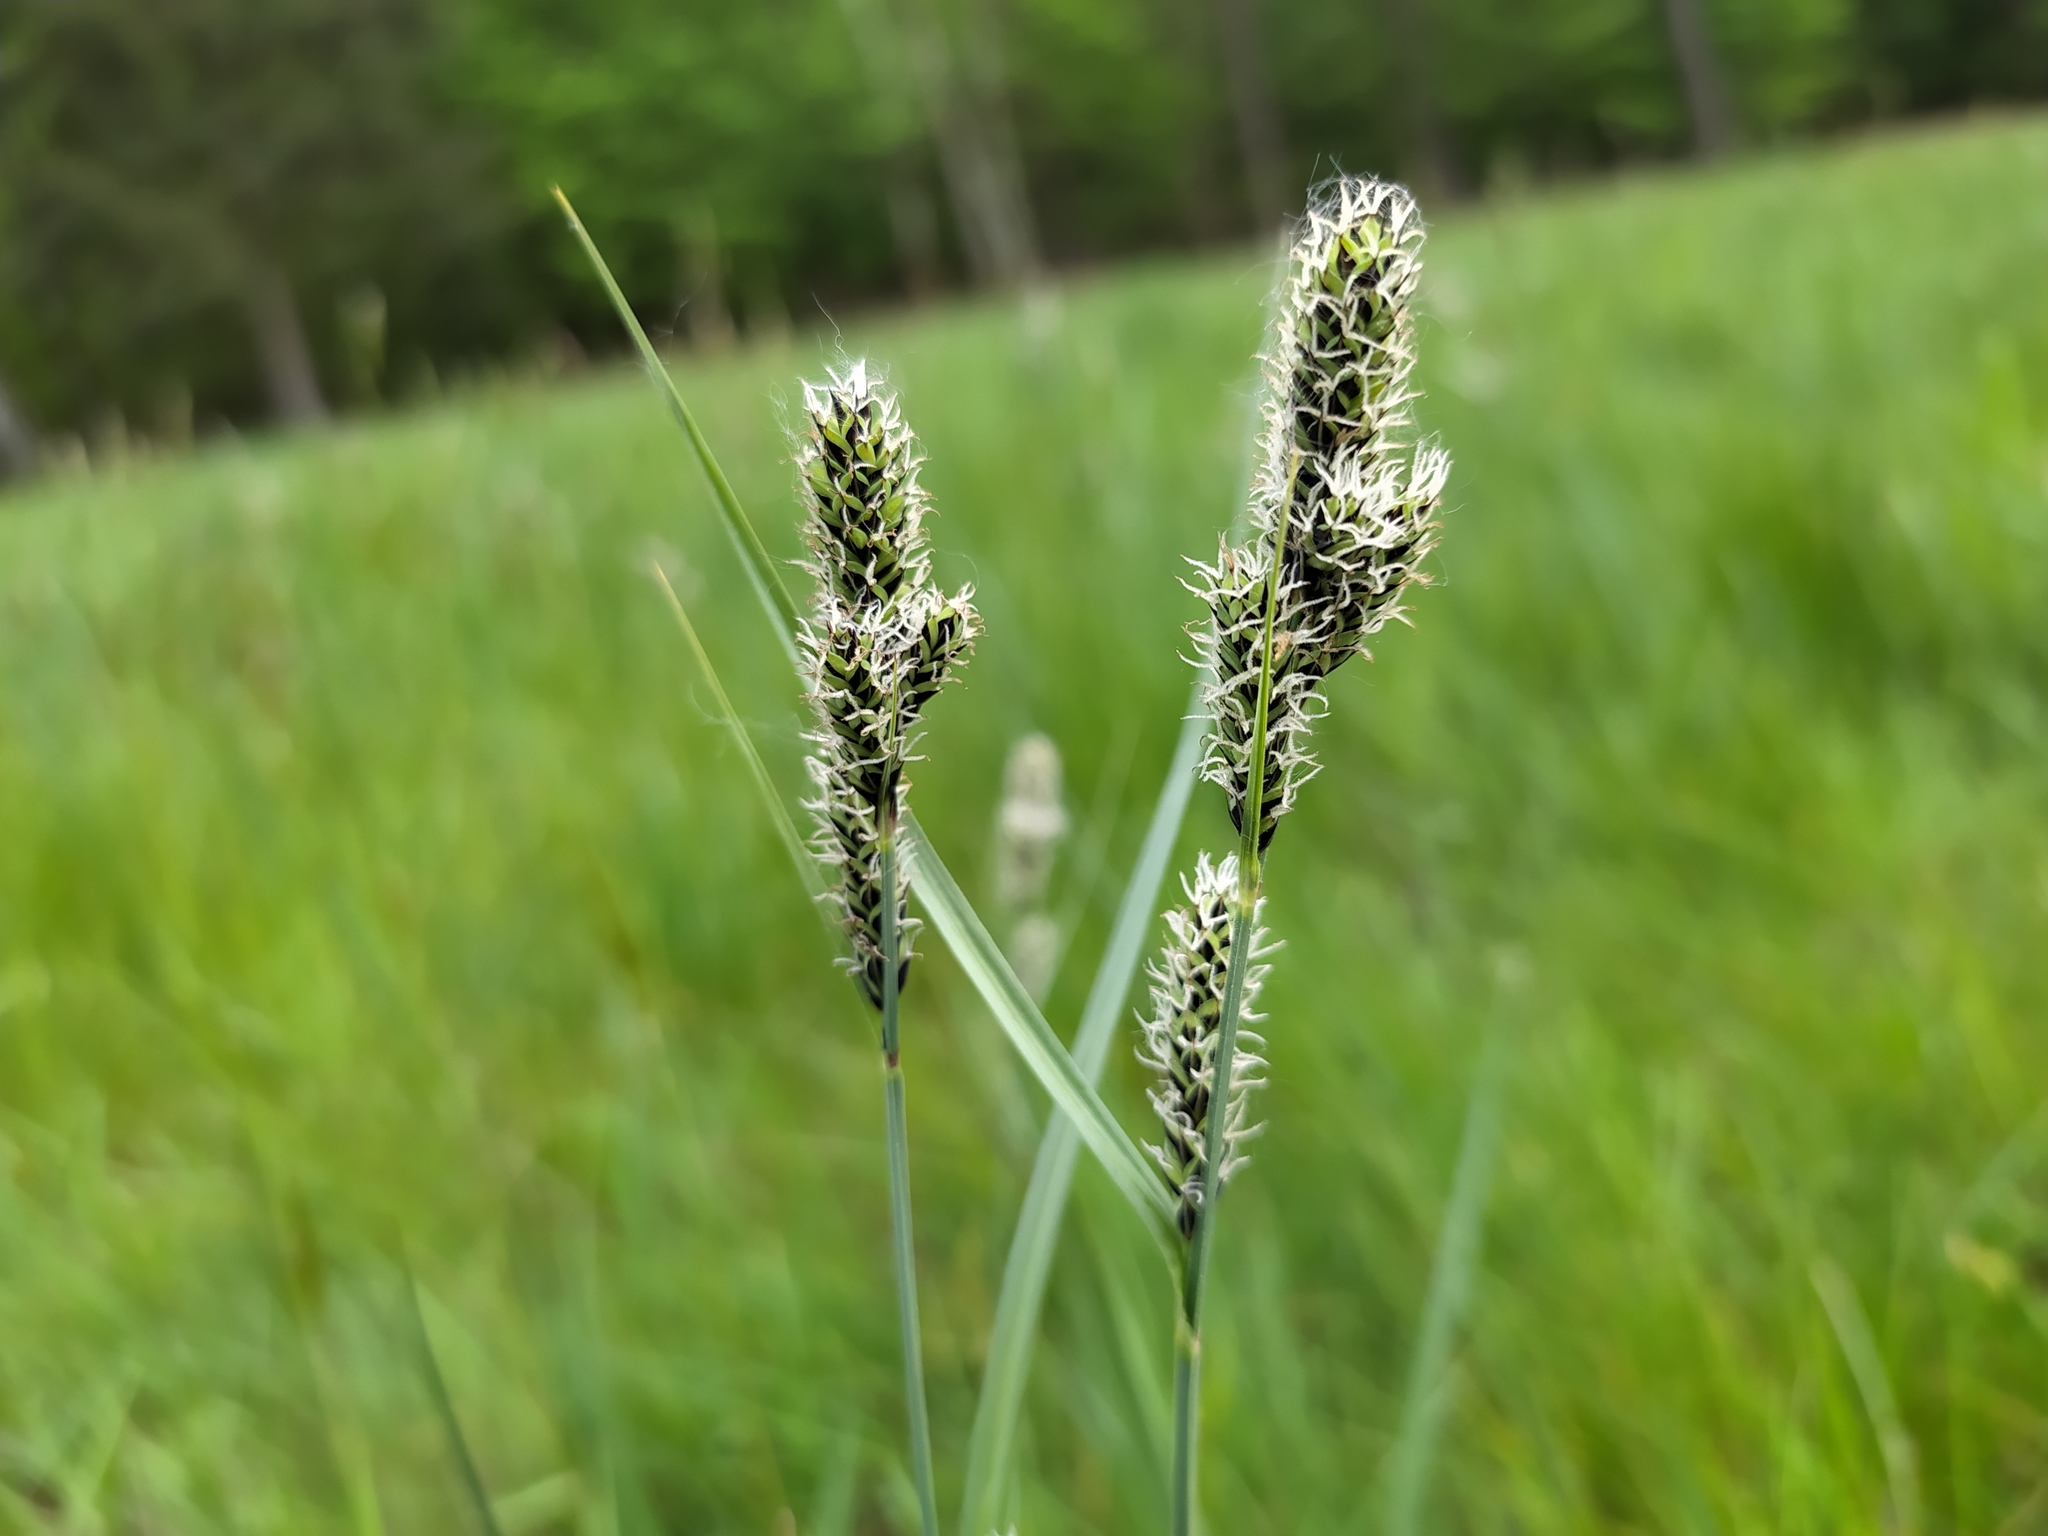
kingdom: Plantae
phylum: Tracheophyta
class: Liliopsida
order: Poales
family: Cyperaceae
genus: Carex
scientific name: Carex hartmaniorum
